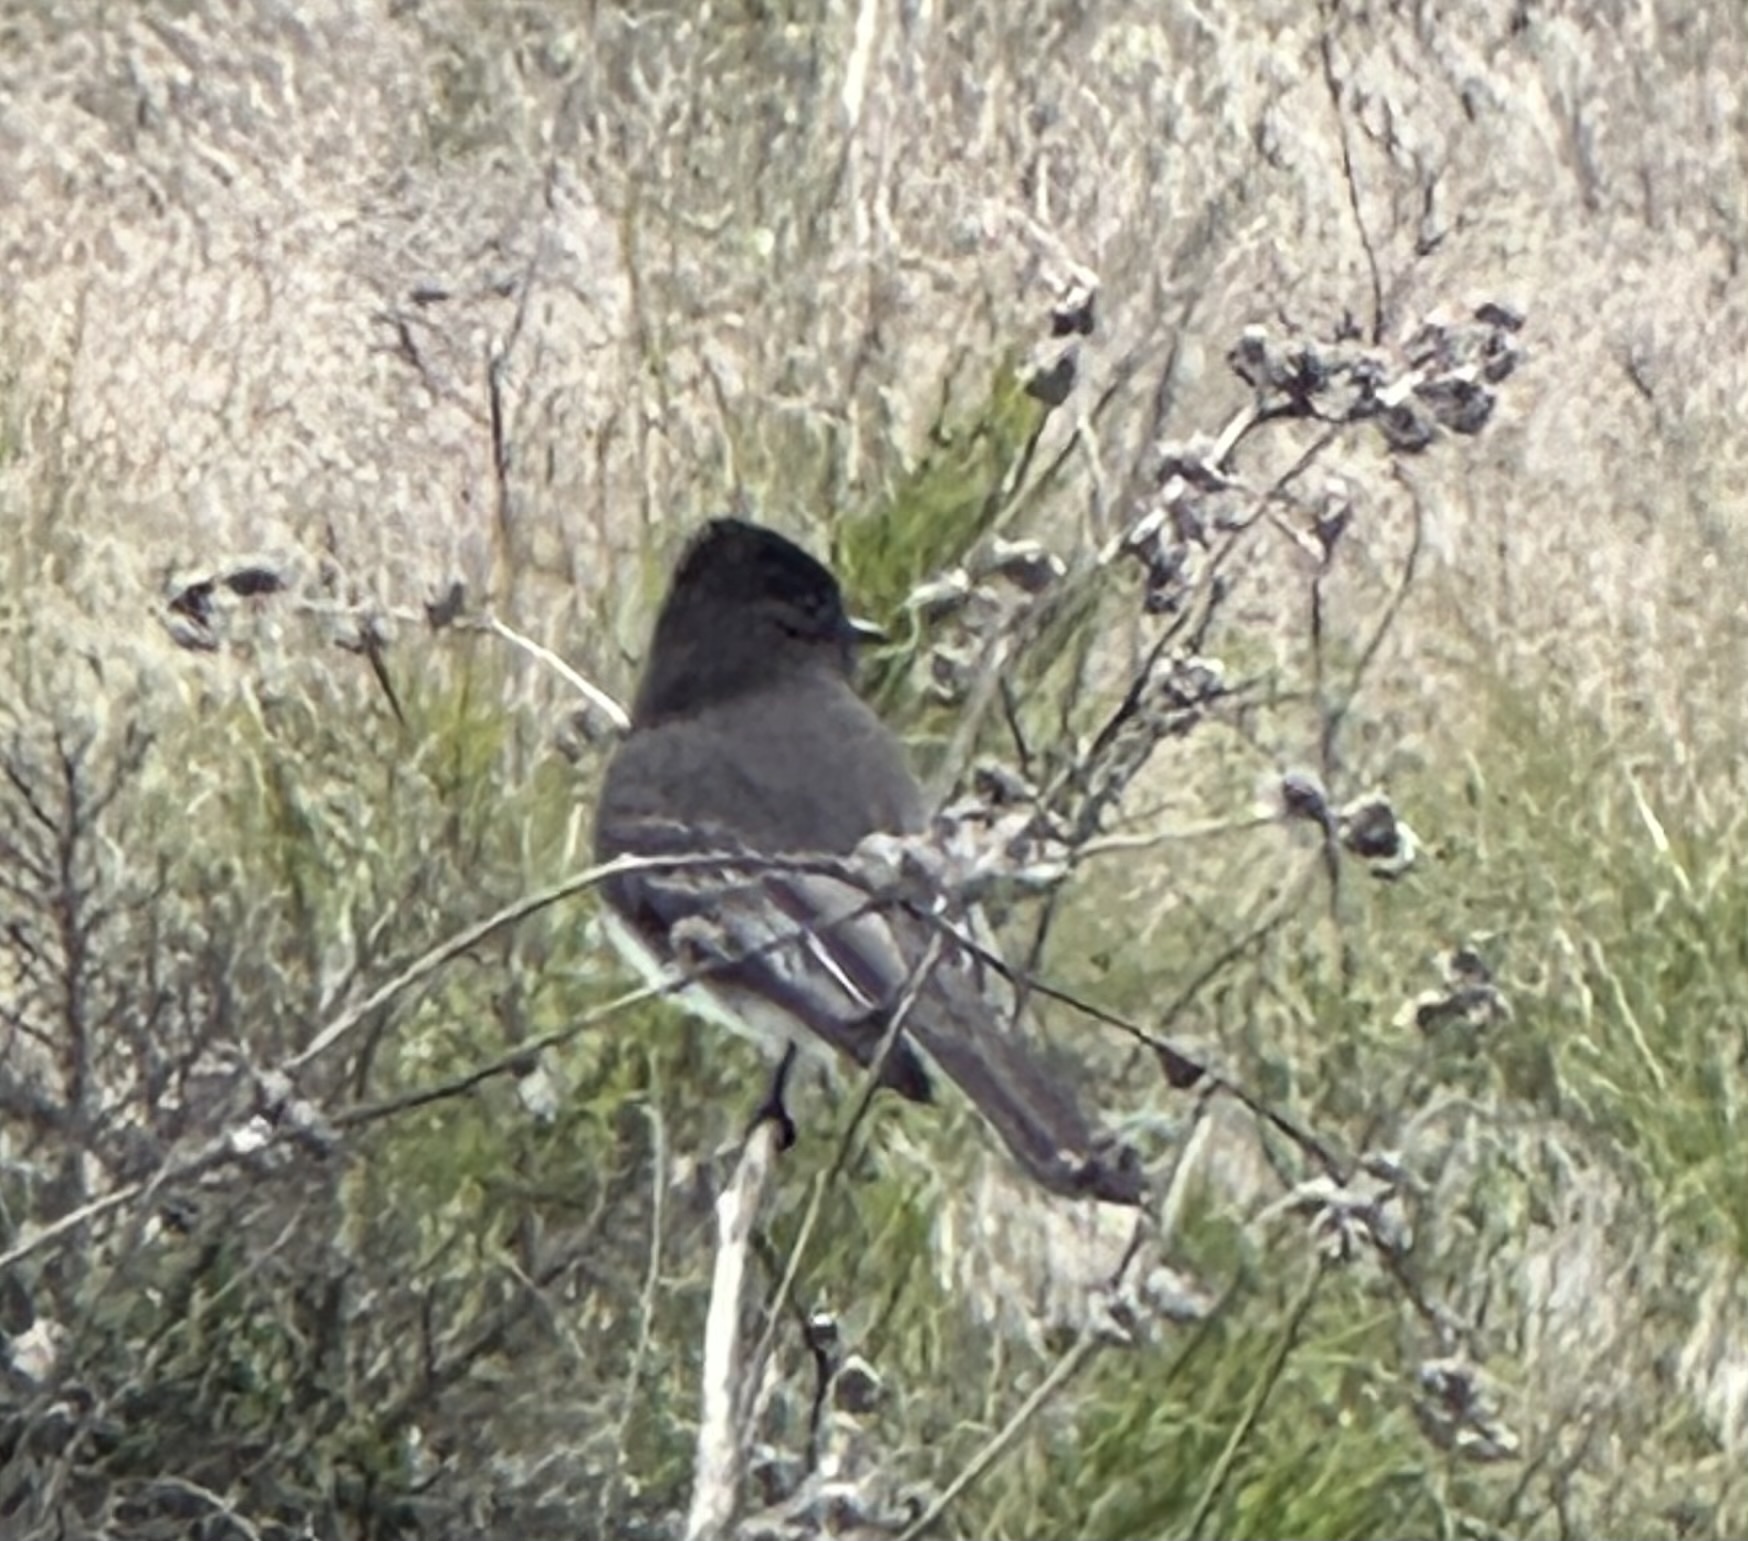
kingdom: Animalia
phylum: Chordata
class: Aves
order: Passeriformes
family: Tyrannidae
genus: Sayornis
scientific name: Sayornis nigricans
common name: Black phoebe
